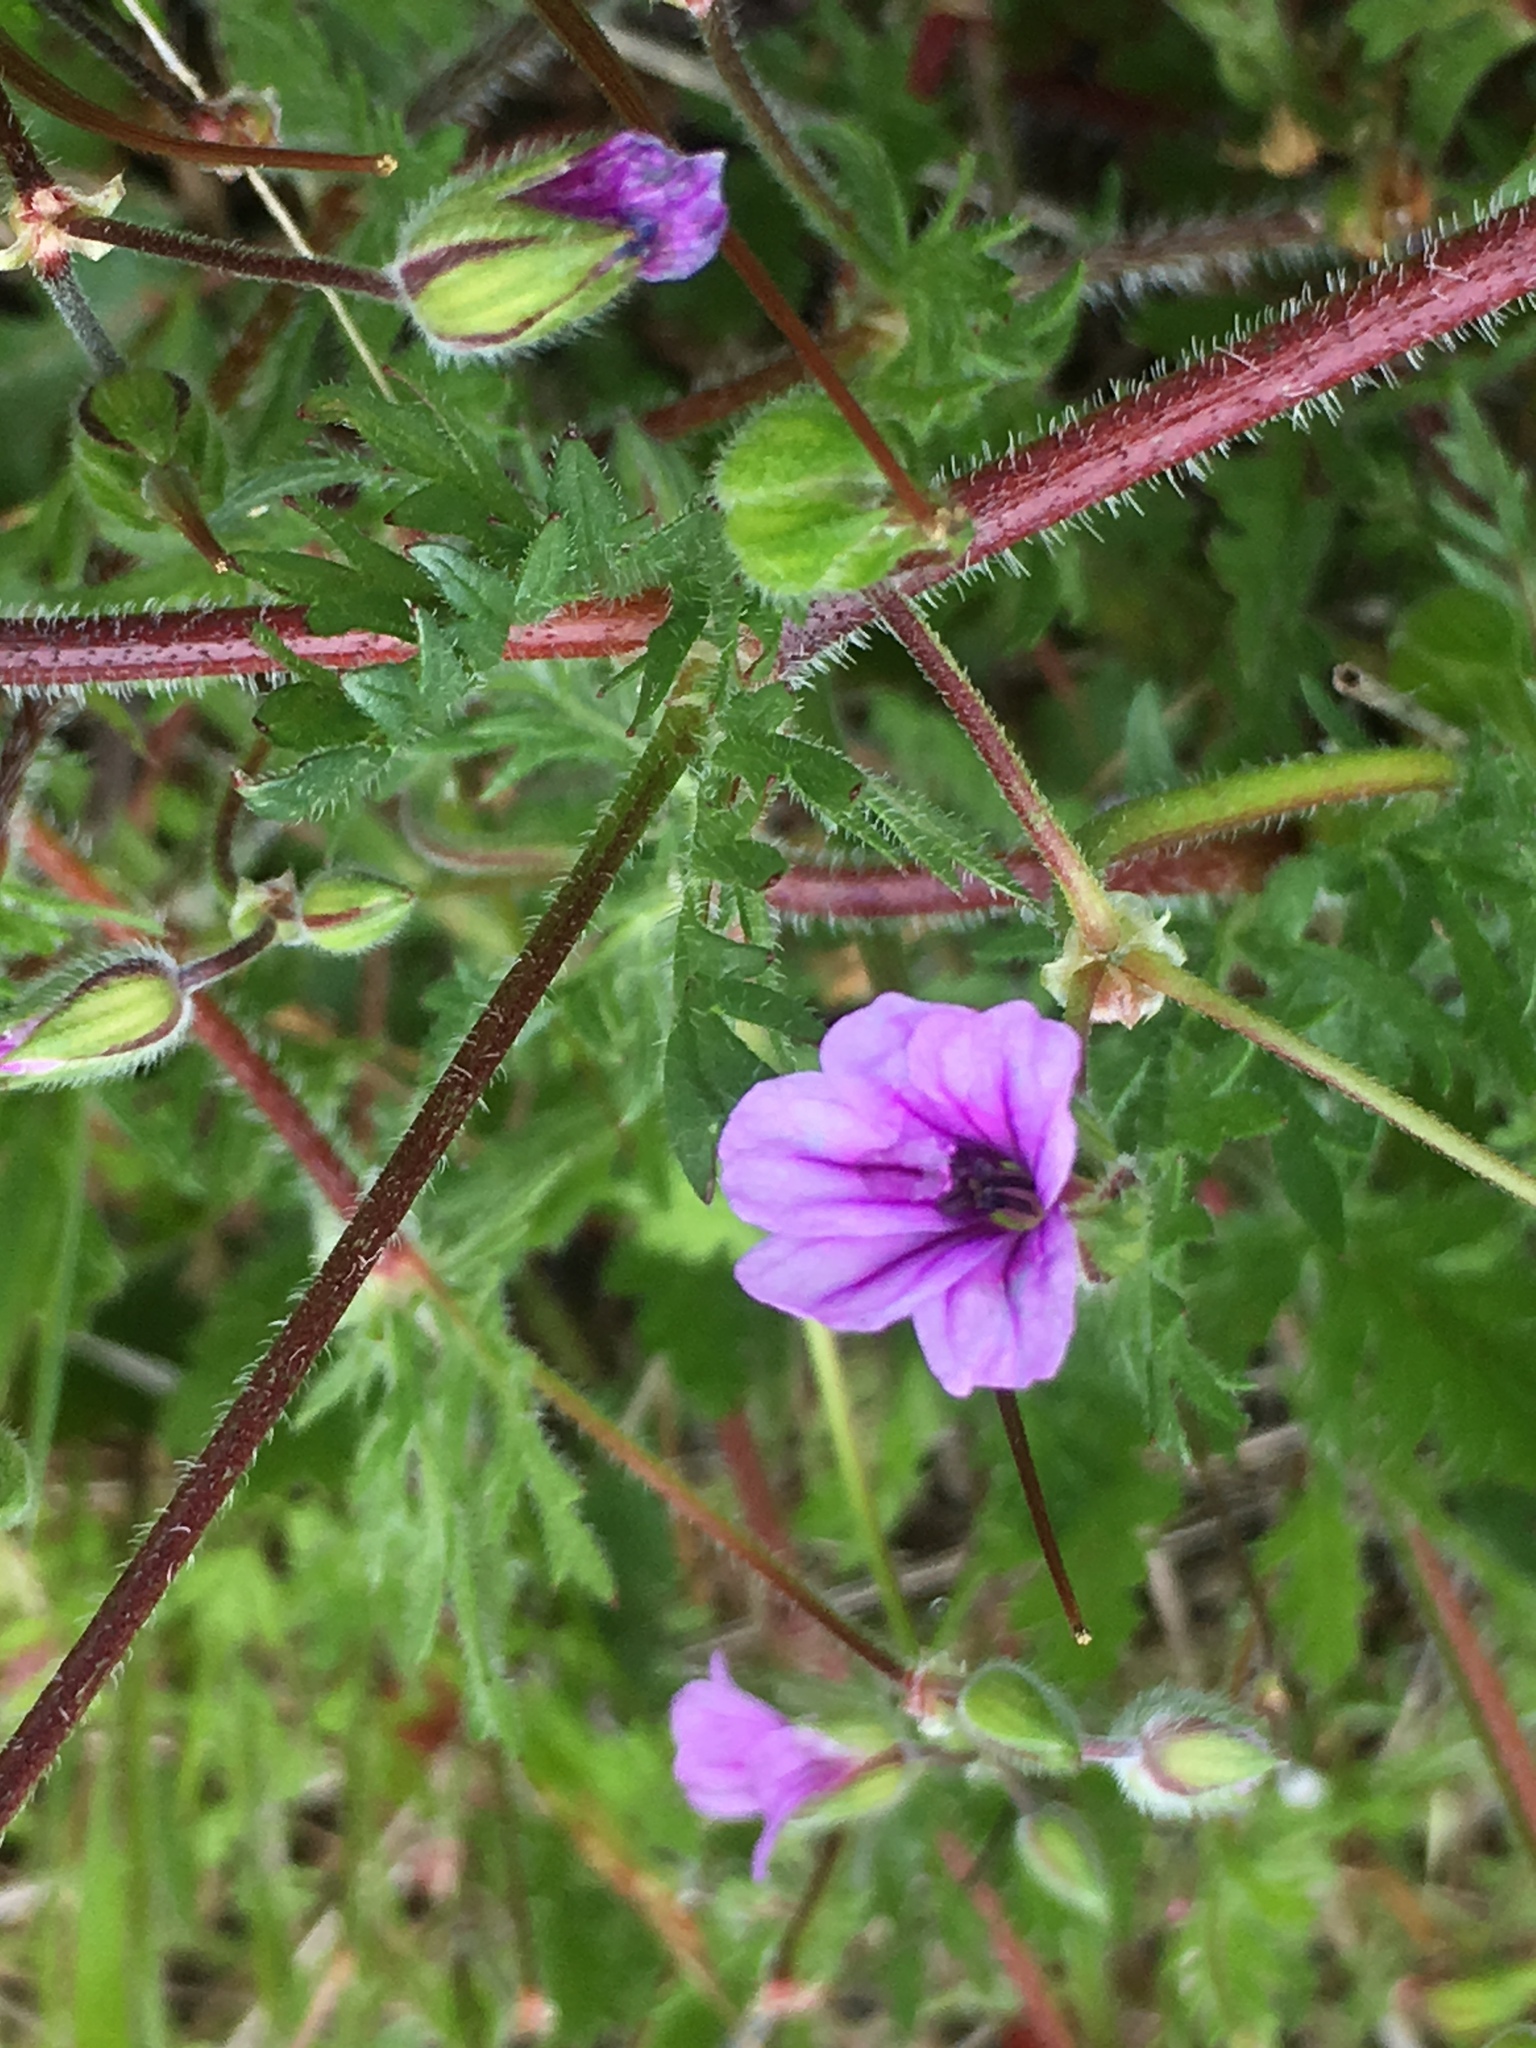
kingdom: Plantae
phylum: Tracheophyta
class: Magnoliopsida
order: Geraniales
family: Geraniaceae
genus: Erodium
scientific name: Erodium botrys
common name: Mediterranean stork's-bill
